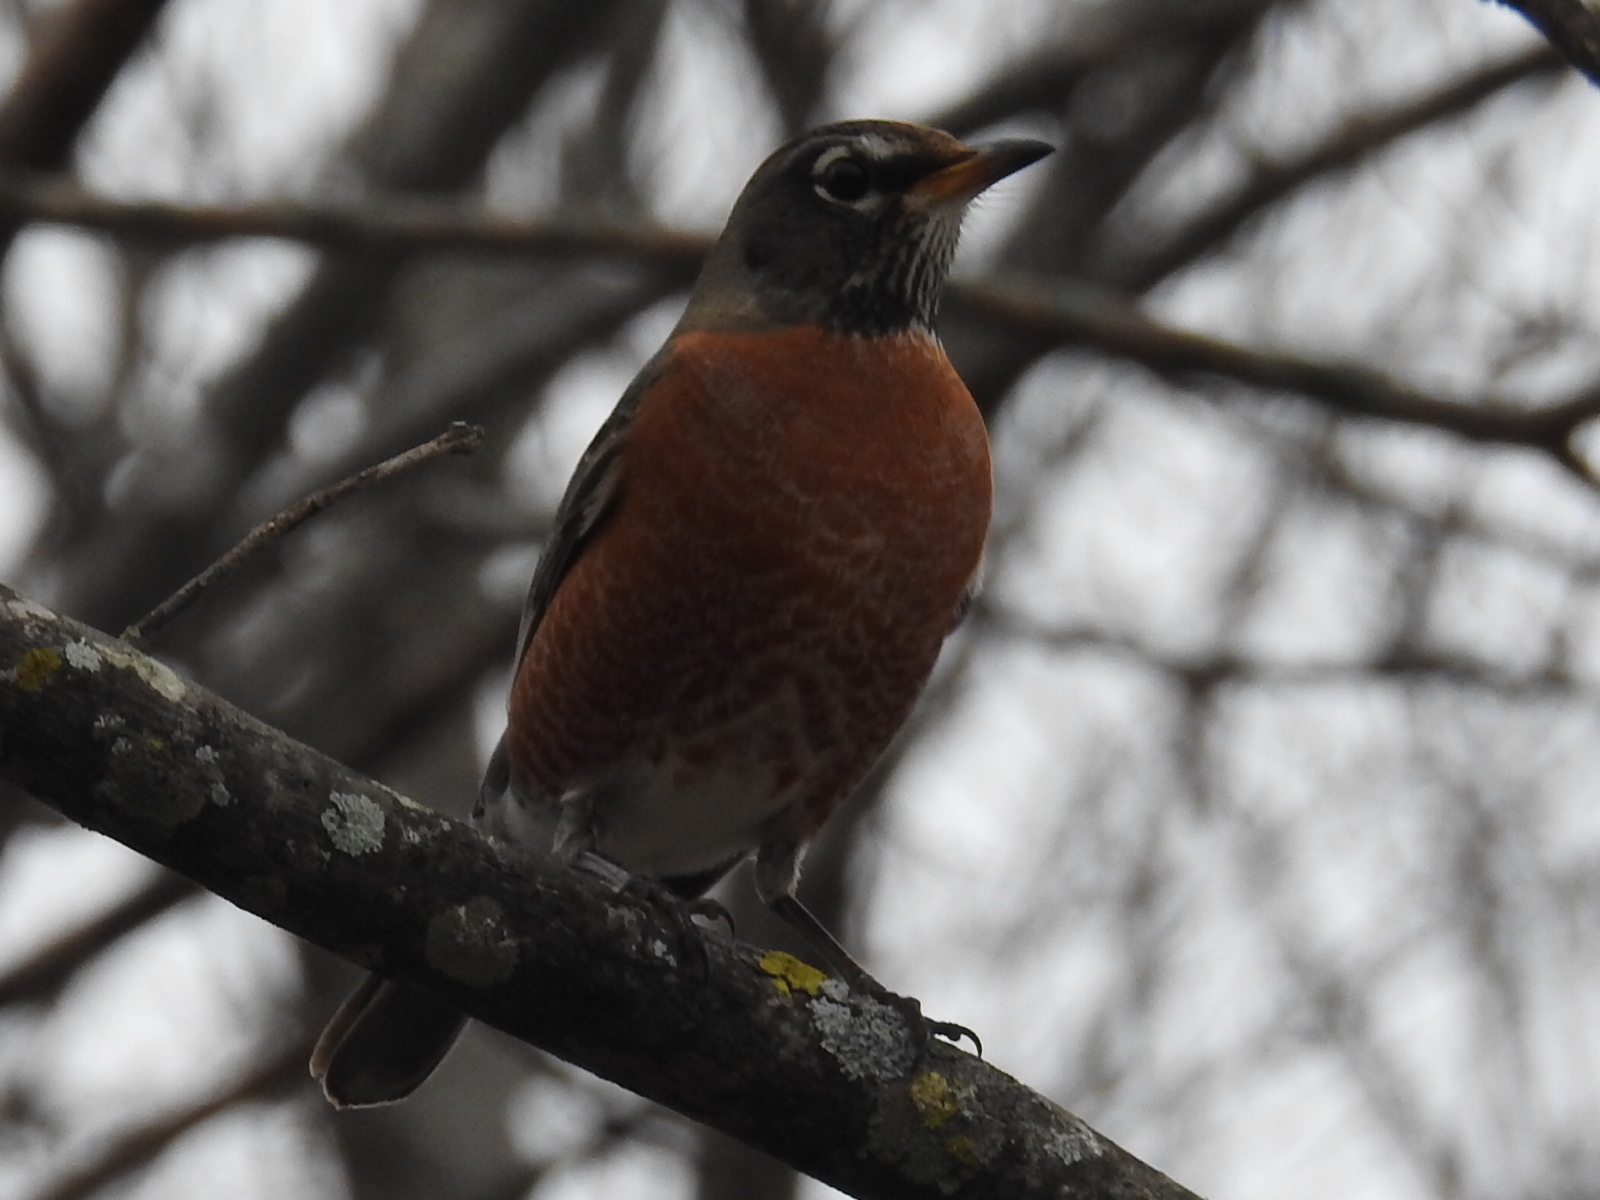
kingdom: Animalia
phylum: Chordata
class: Aves
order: Passeriformes
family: Turdidae
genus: Turdus
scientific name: Turdus migratorius
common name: American robin
